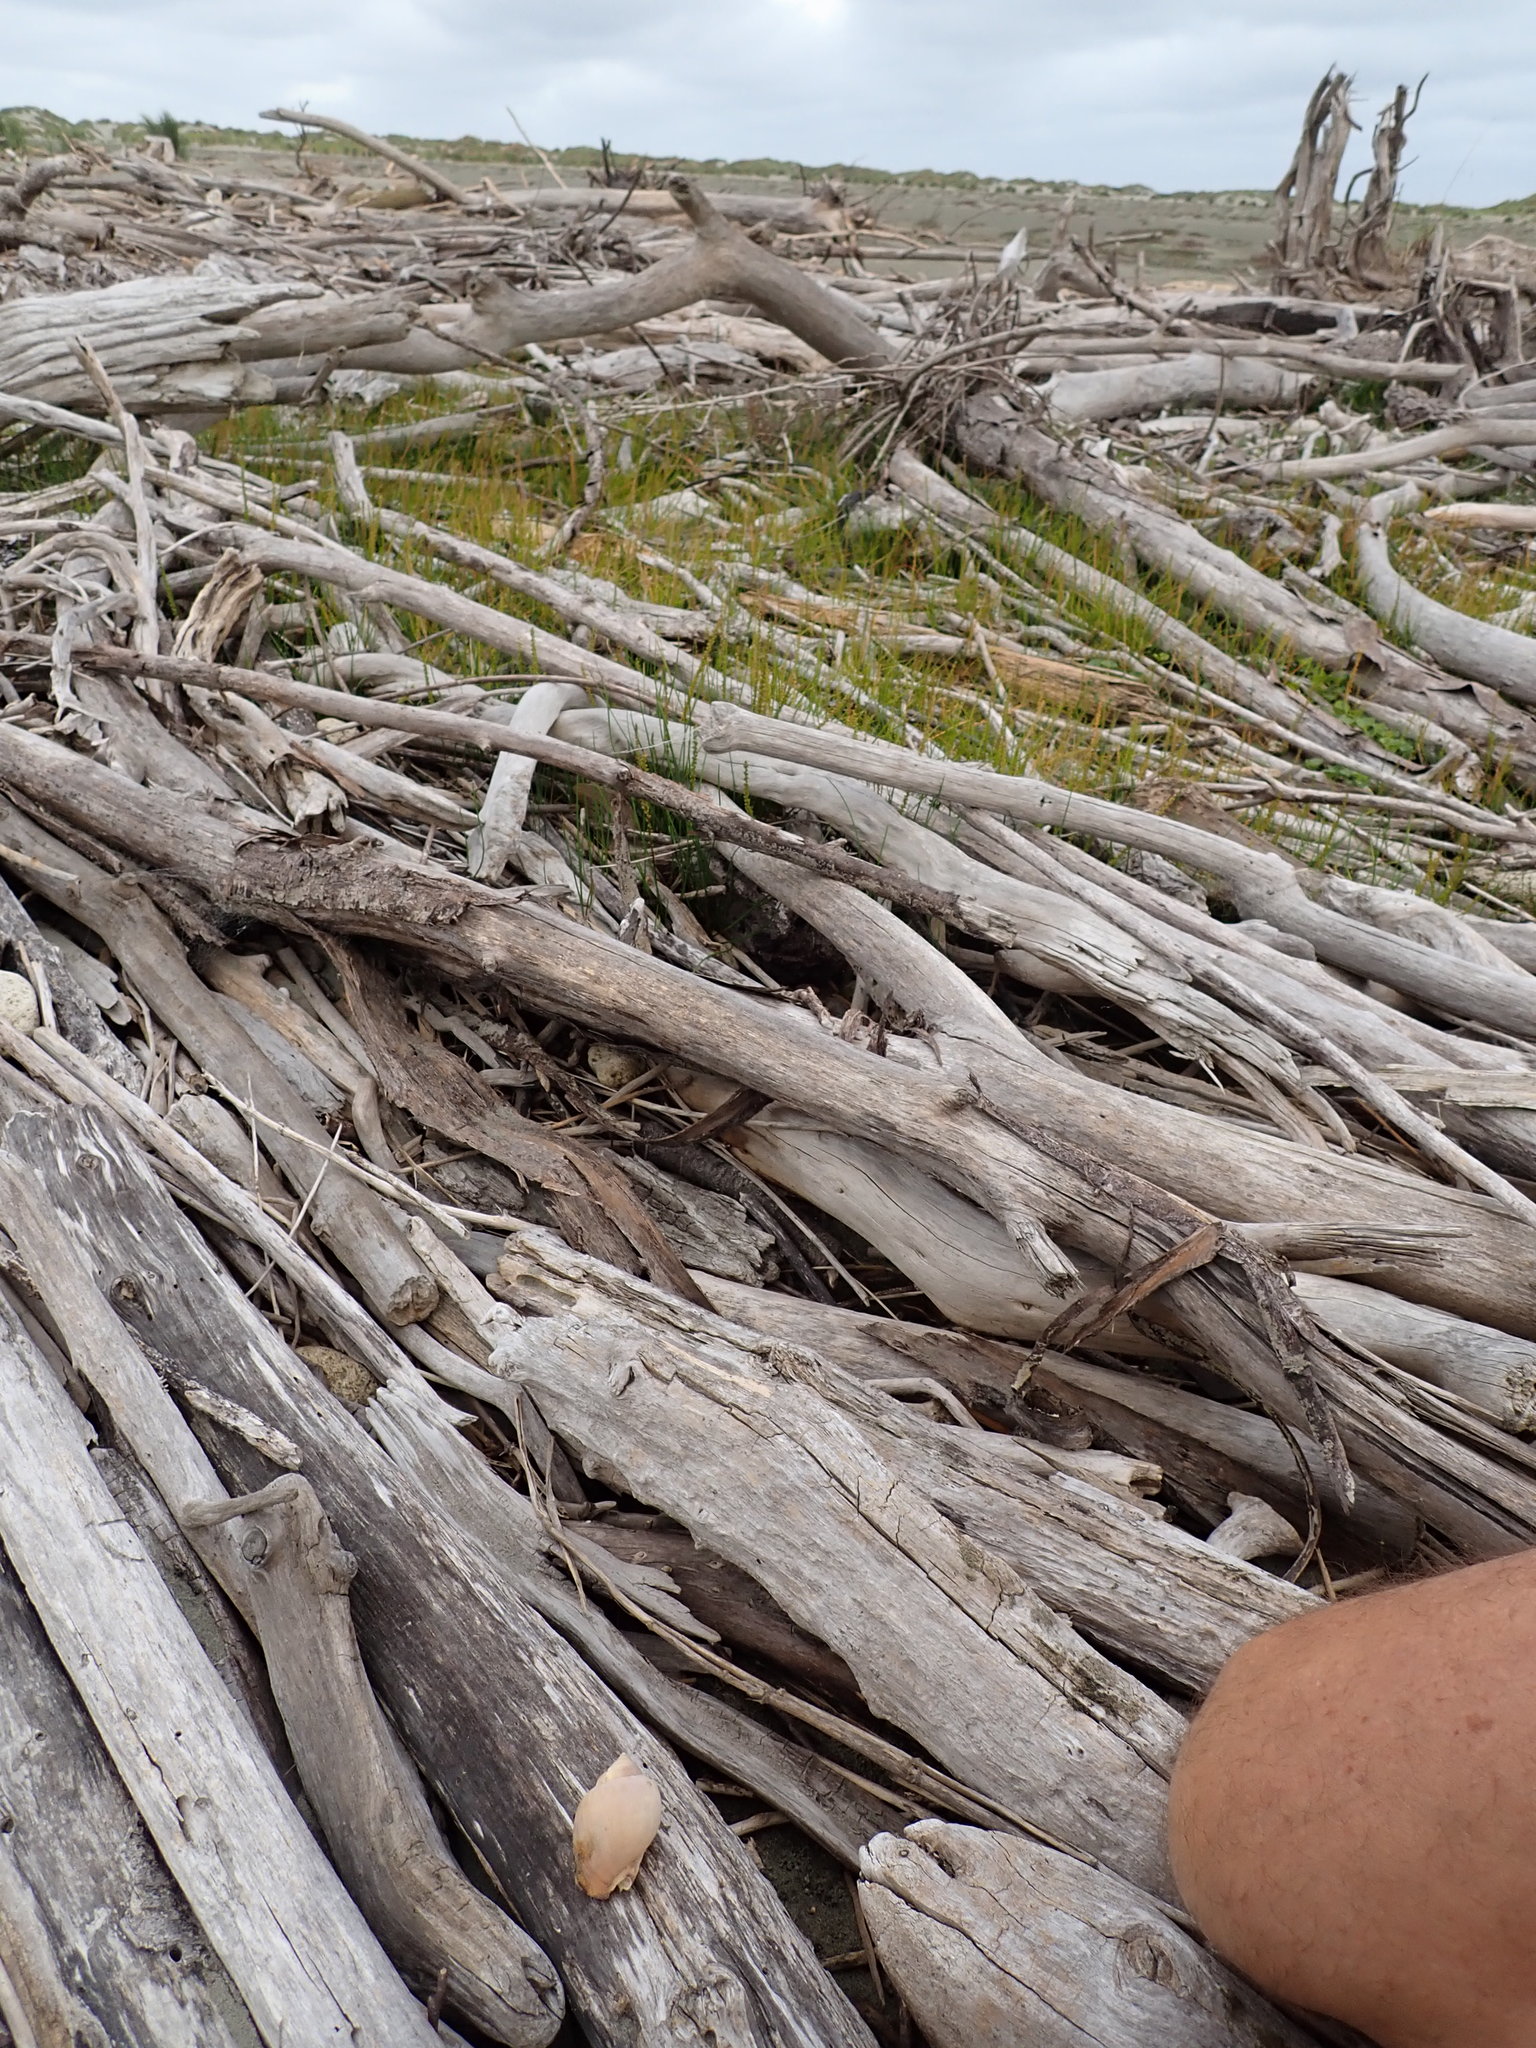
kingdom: Animalia
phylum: Mollusca
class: Gastropoda
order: Littorinimorpha
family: Cassidae
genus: Semicassis
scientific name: Semicassis pyrum
